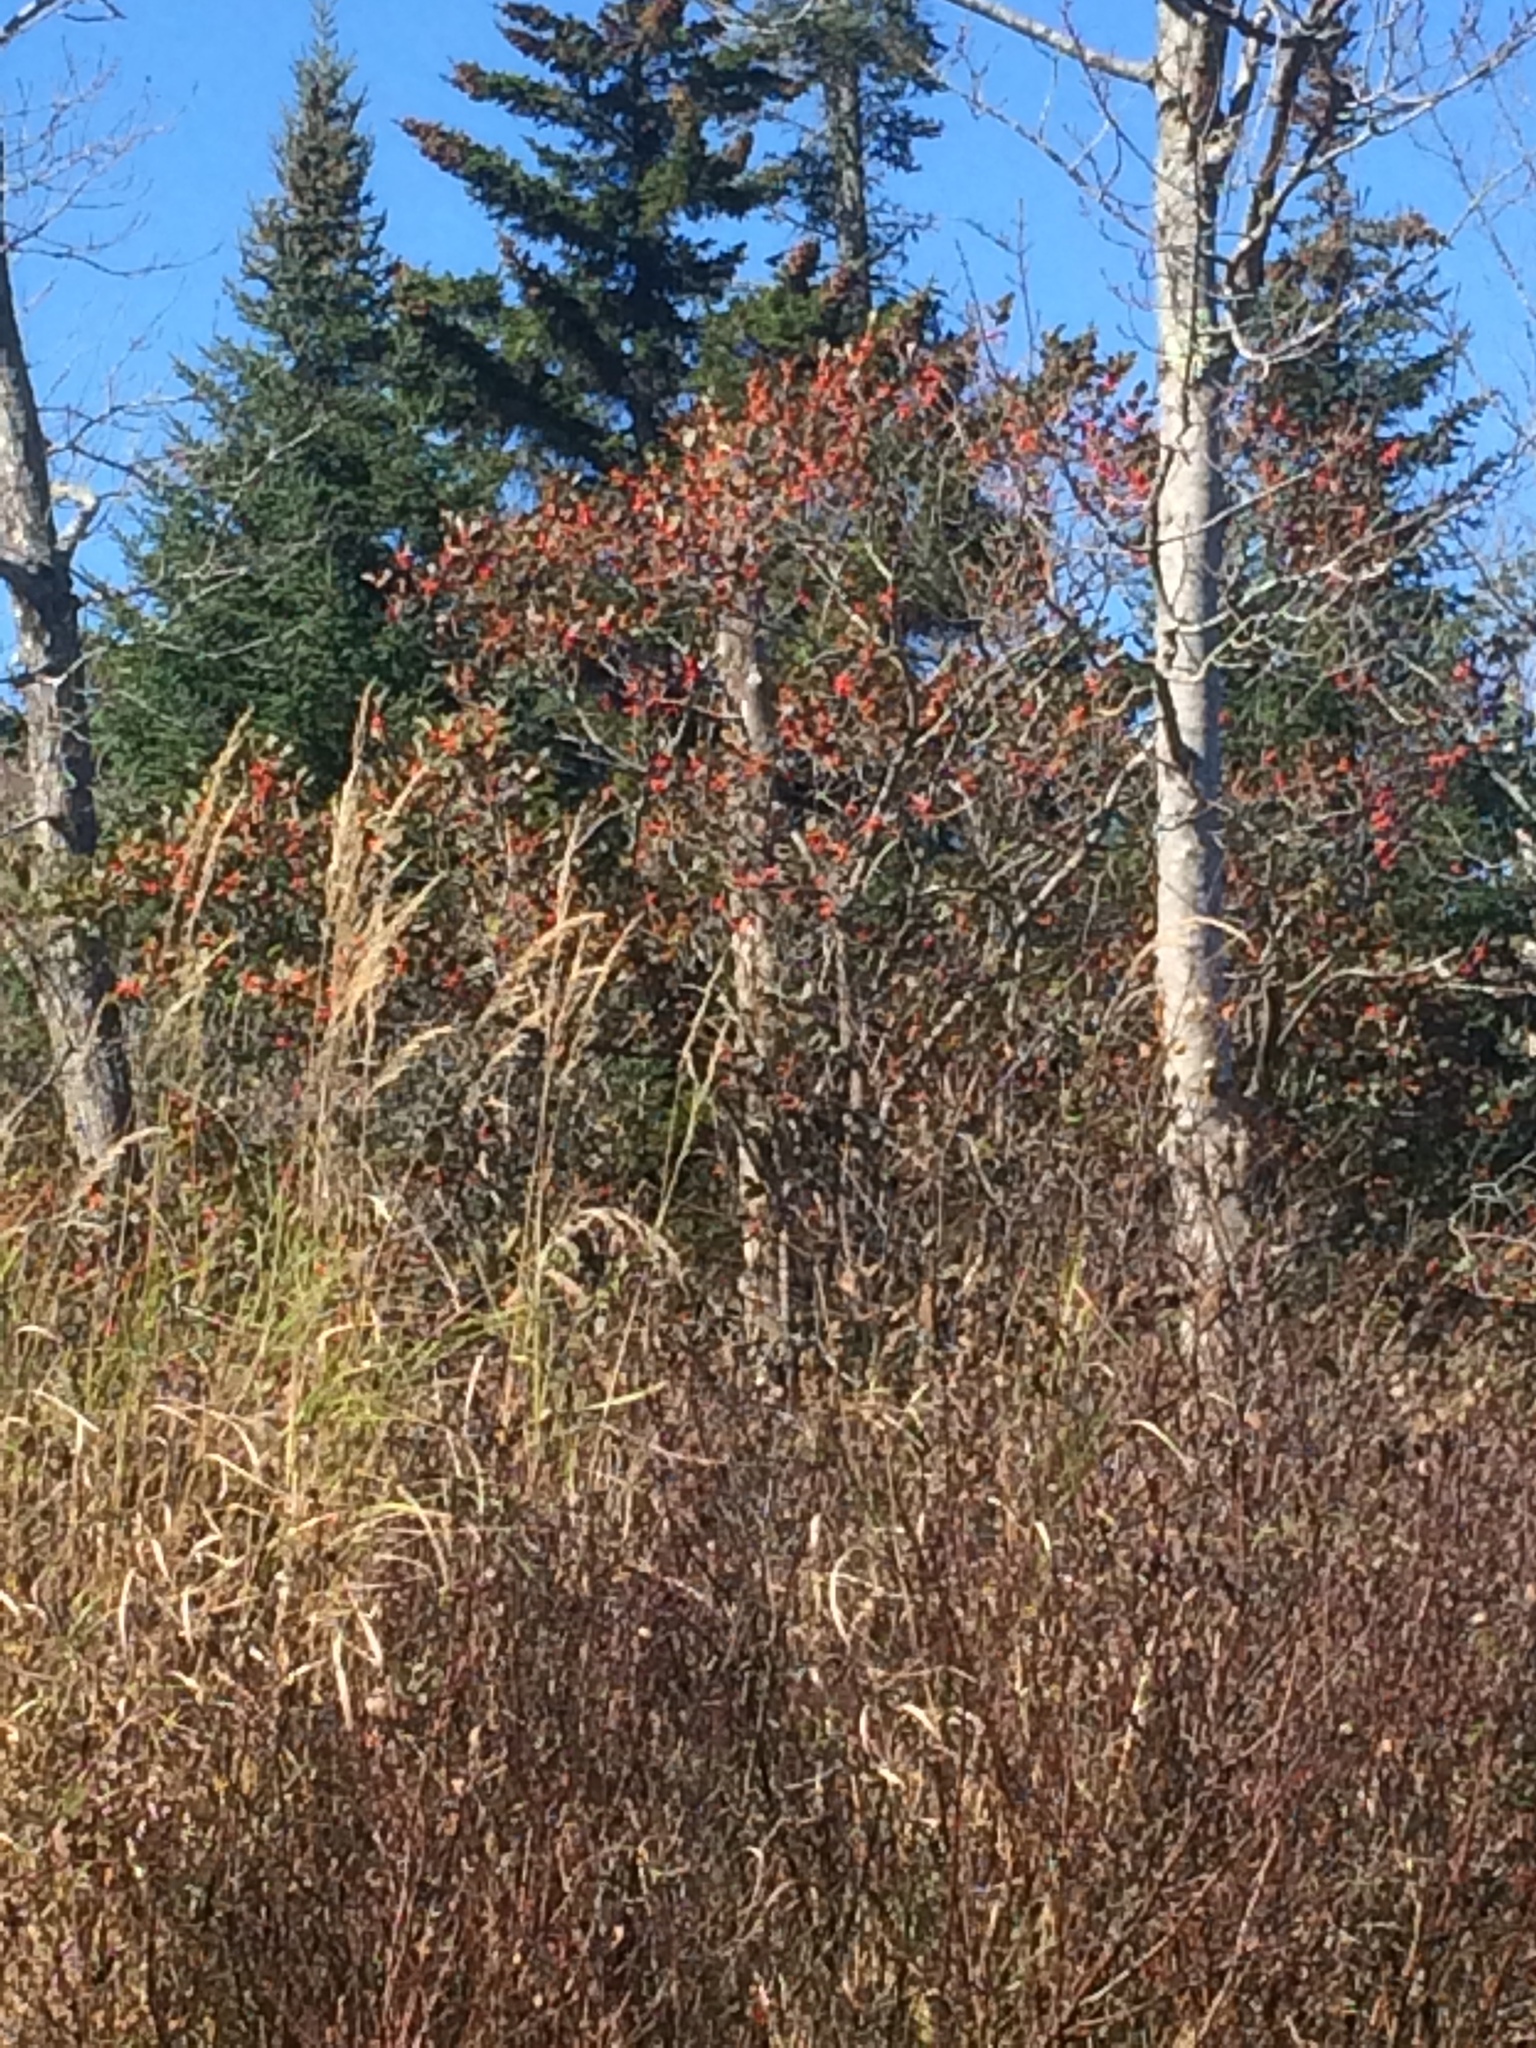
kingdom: Plantae
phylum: Tracheophyta
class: Magnoliopsida
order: Aquifoliales
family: Aquifoliaceae
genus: Ilex
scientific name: Ilex verticillata
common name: Virginia winterberry
